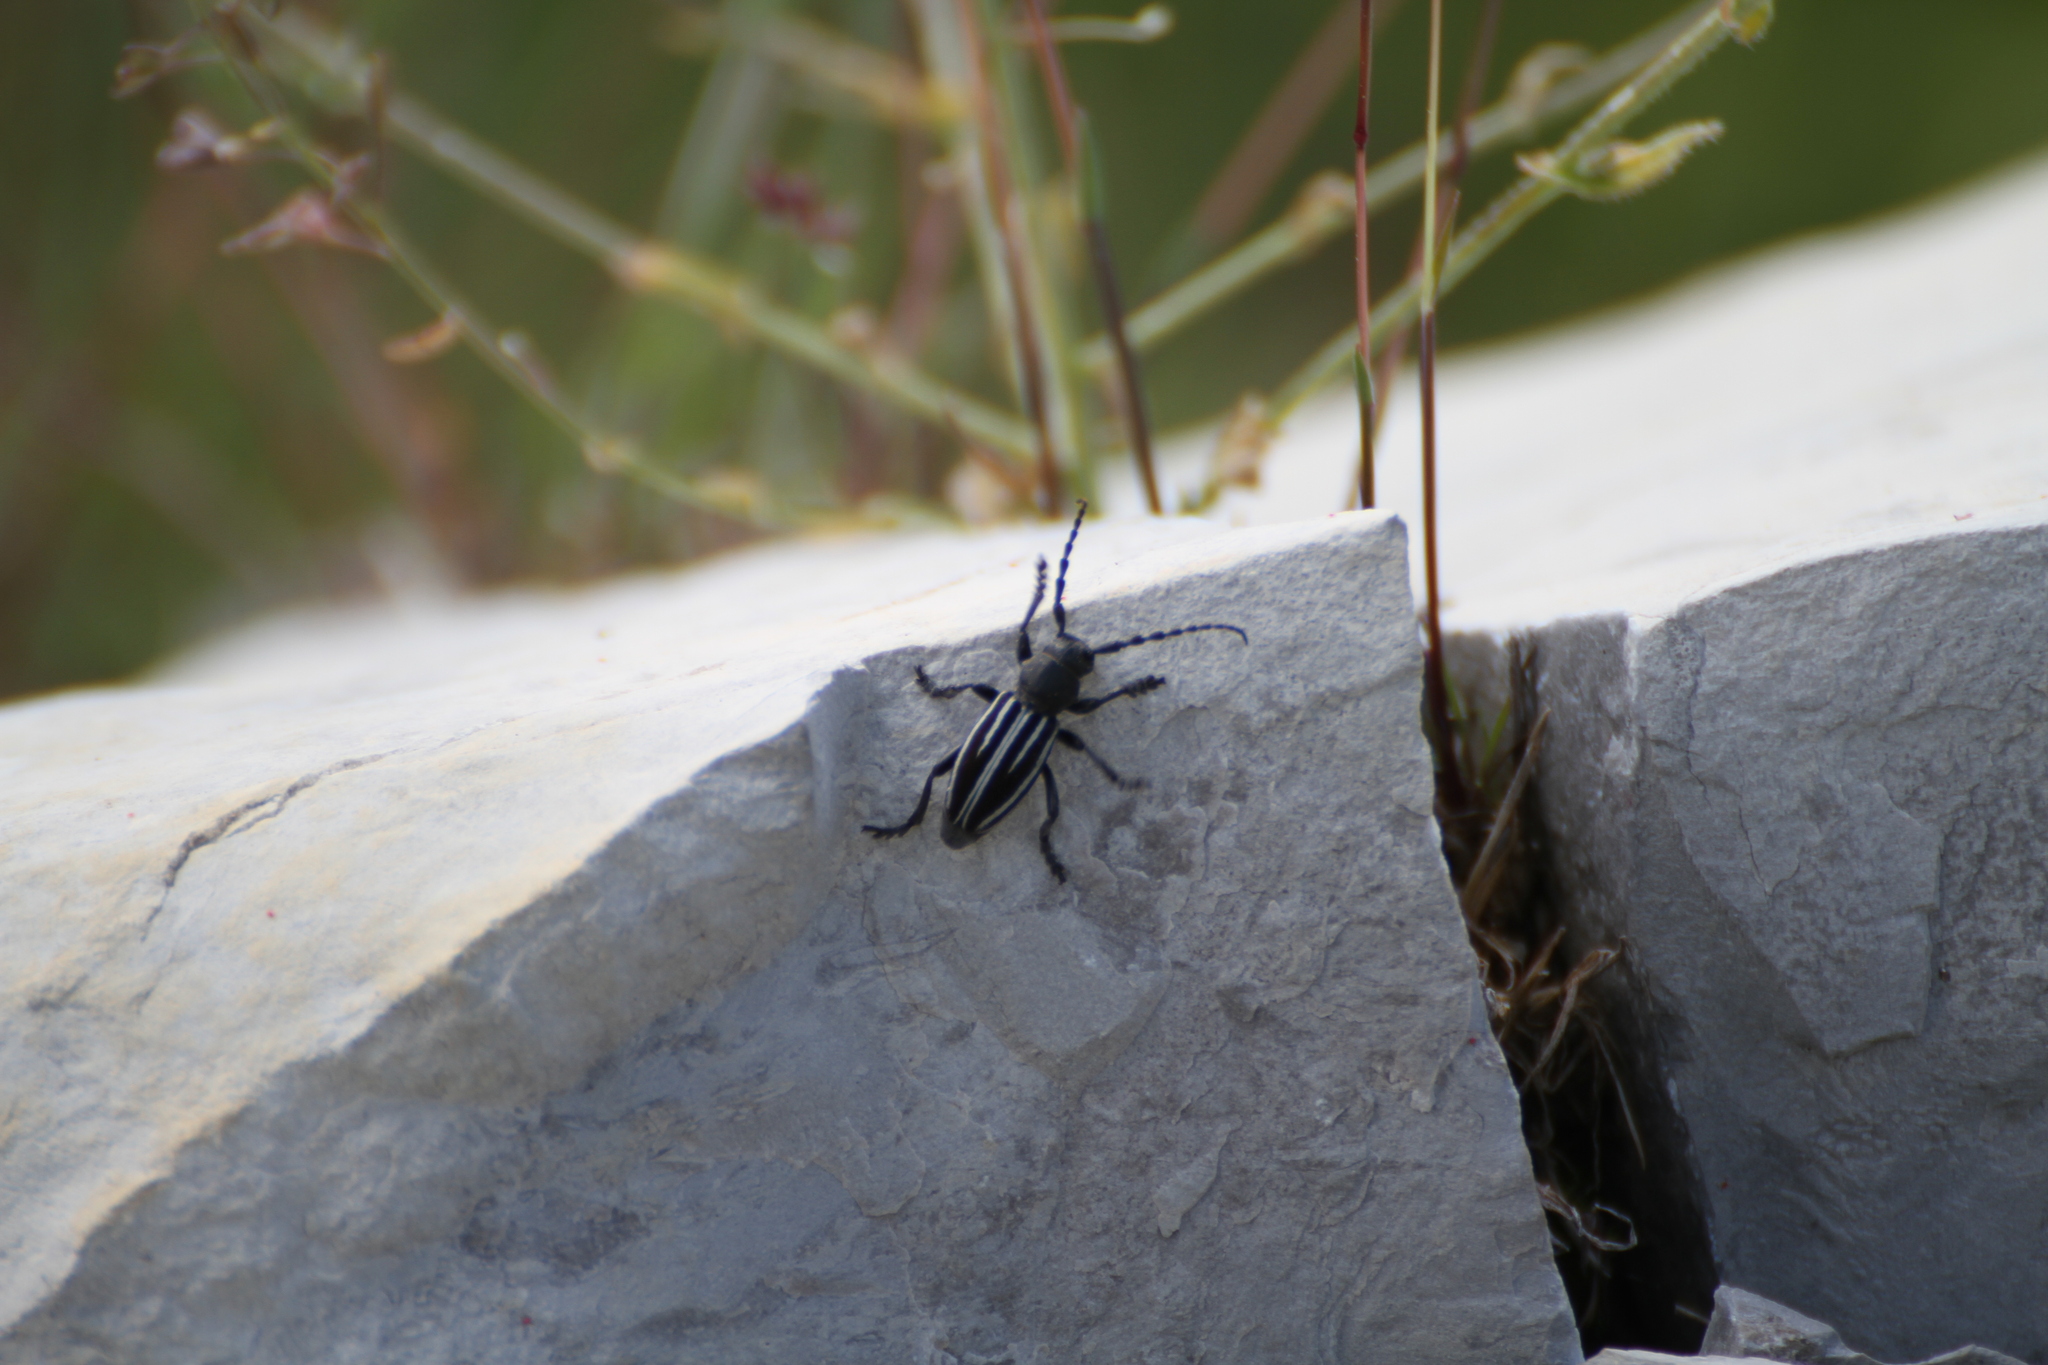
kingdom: Animalia
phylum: Arthropoda
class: Insecta
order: Coleoptera
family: Cerambycidae
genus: Iberodorcadion
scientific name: Iberodorcadion fuliginator
